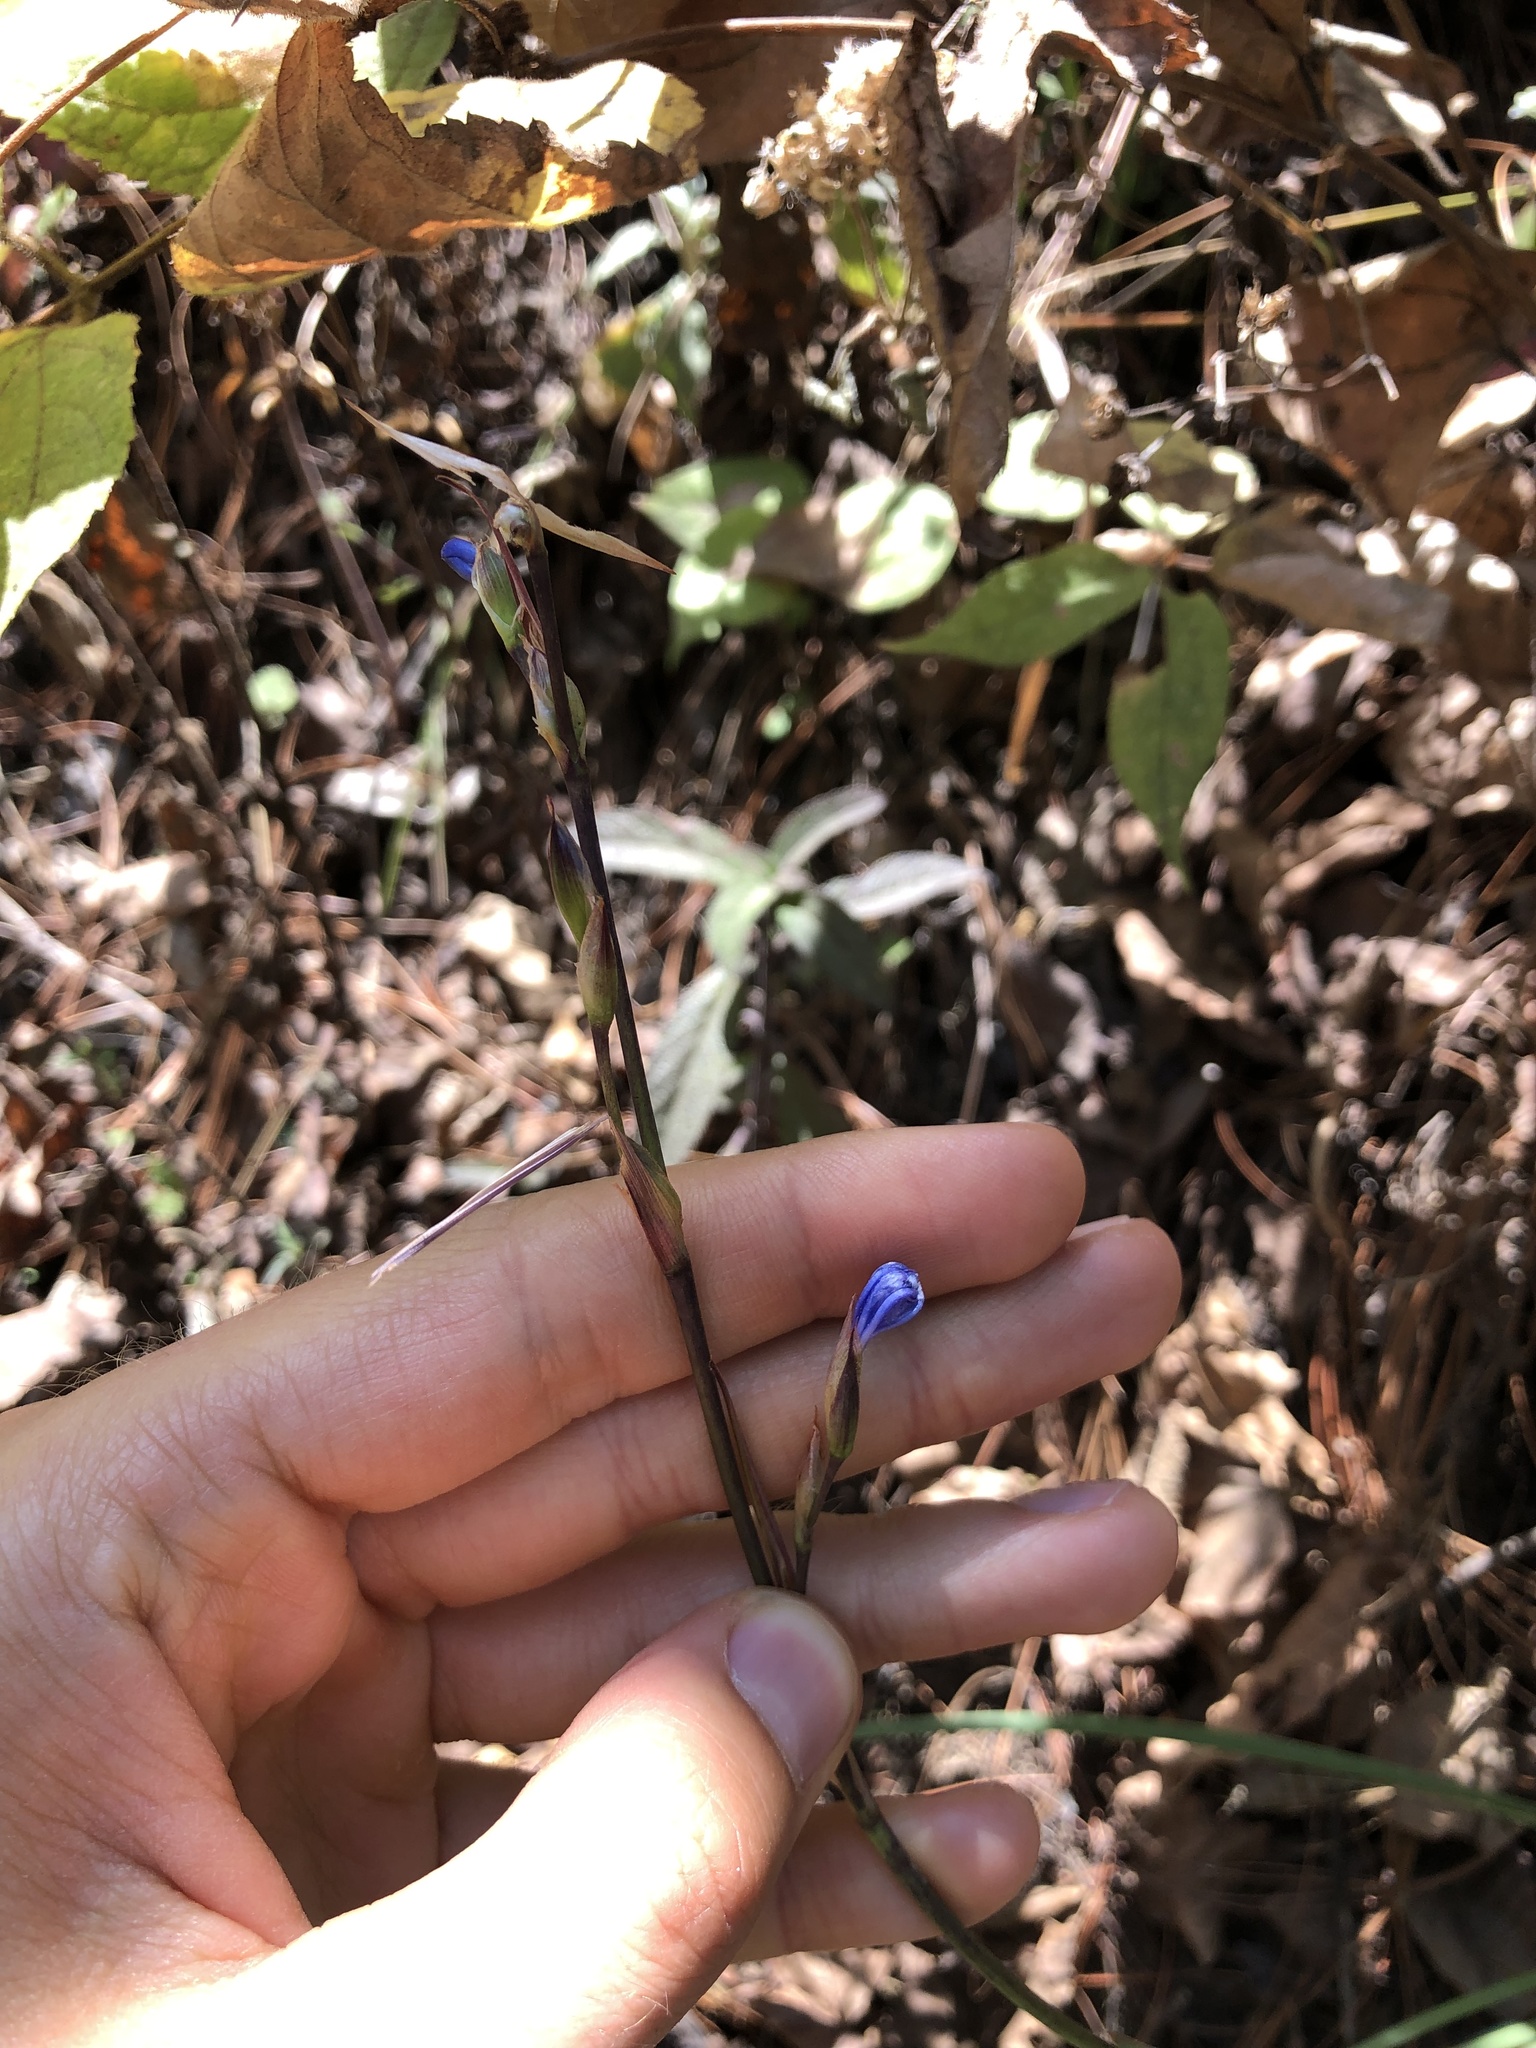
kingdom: Plantae
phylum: Tracheophyta
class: Liliopsida
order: Asparagales
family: Iridaceae
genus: Orthrosanthus
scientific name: Orthrosanthus exsertus
